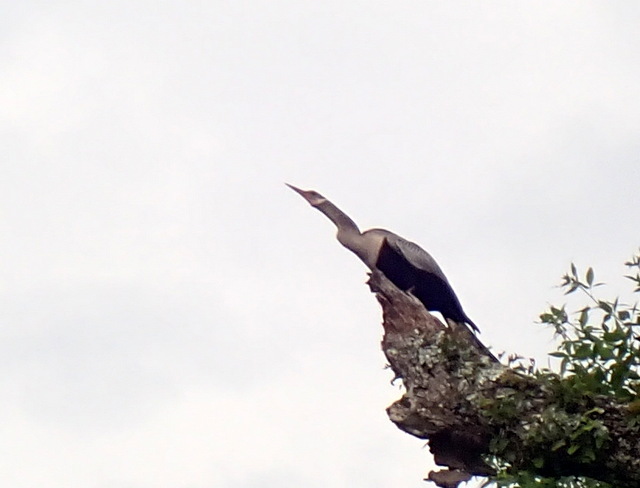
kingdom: Animalia
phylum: Chordata
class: Aves
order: Suliformes
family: Anhingidae
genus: Anhinga
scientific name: Anhinga anhinga
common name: Anhinga
